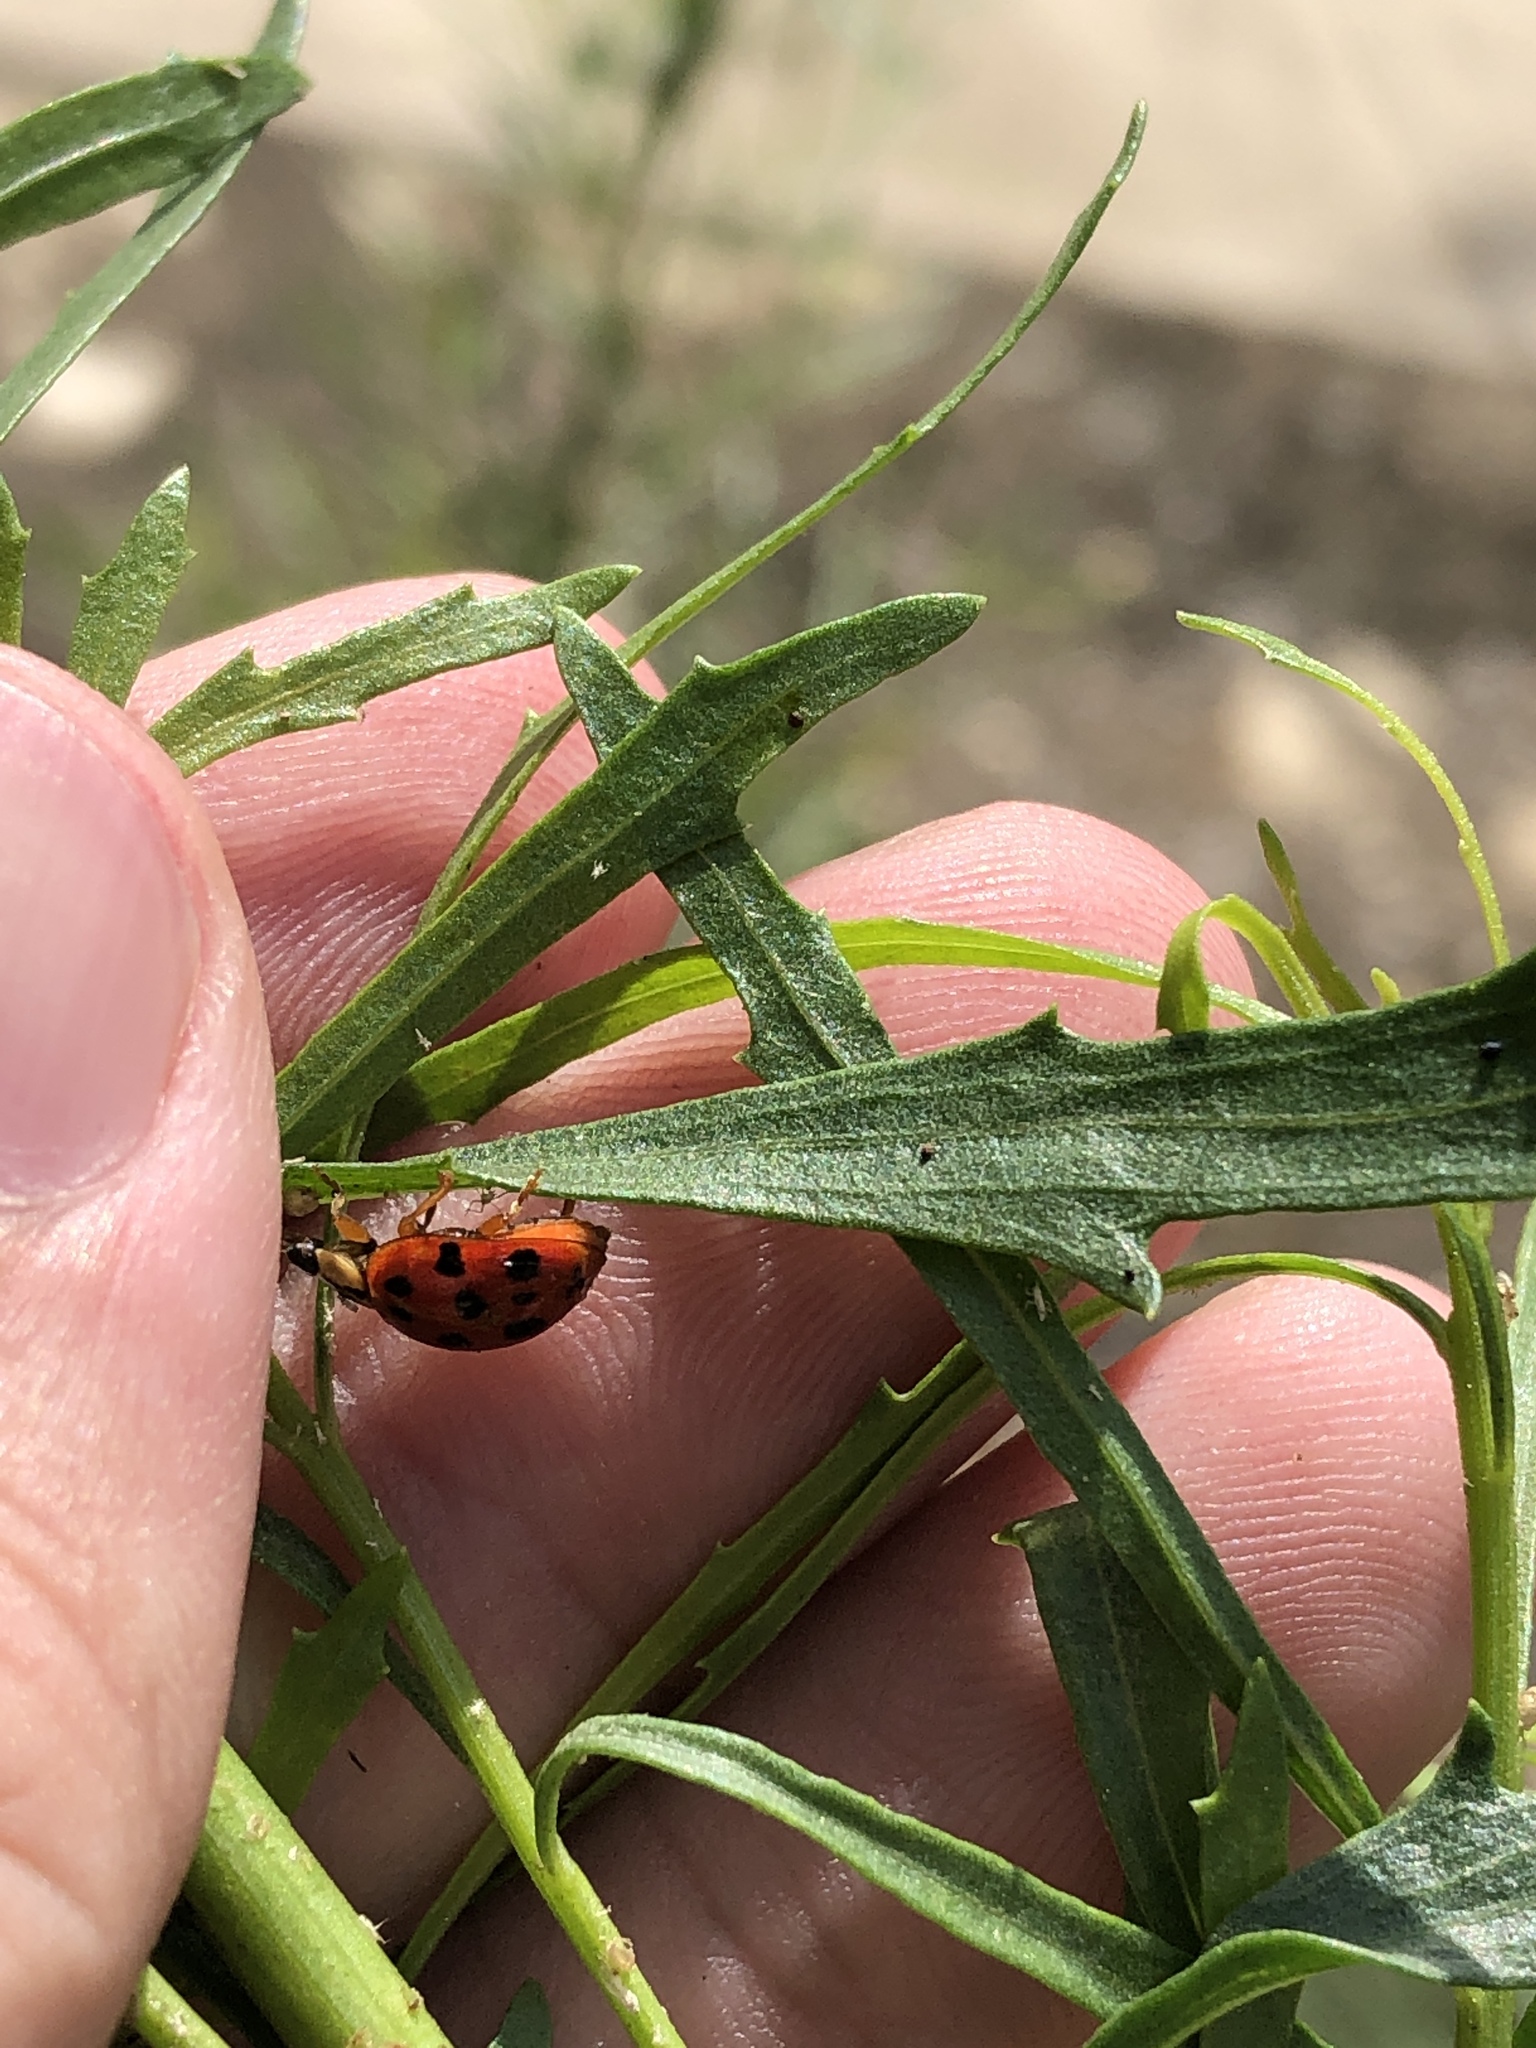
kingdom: Animalia
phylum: Arthropoda
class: Insecta
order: Coleoptera
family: Coccinellidae
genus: Harmonia
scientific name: Harmonia axyridis
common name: Harlequin ladybird
